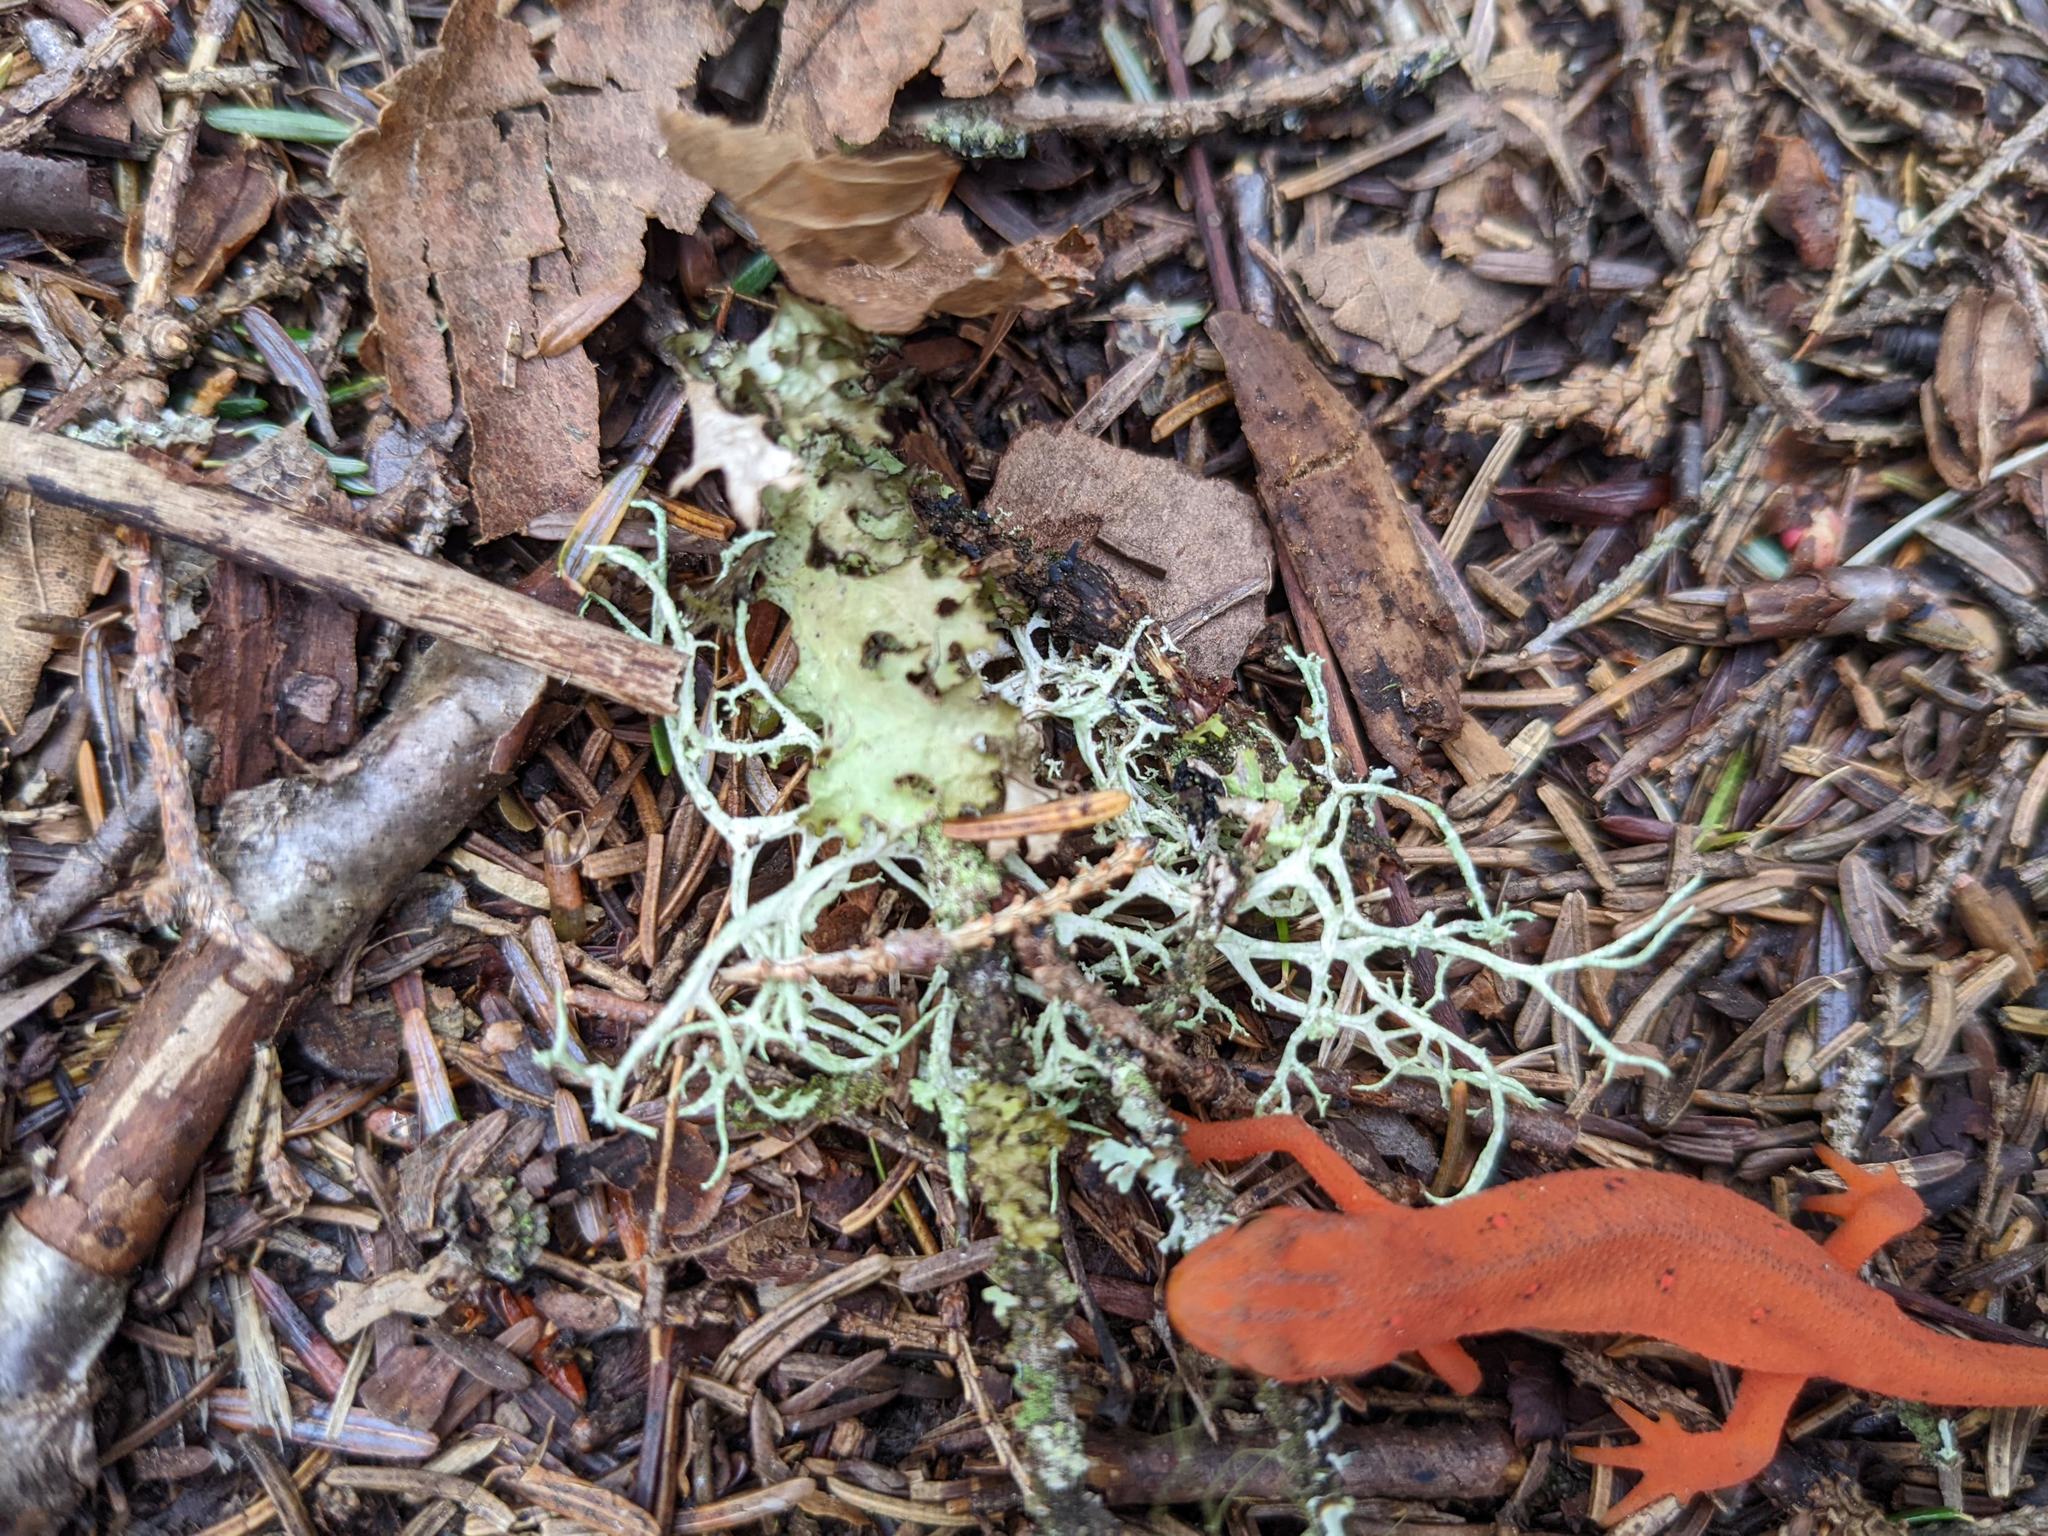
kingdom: Fungi
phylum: Ascomycota
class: Lecanoromycetes
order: Lecanorales
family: Parmeliaceae
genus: Evernia
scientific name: Evernia mesomorpha
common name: Boreal oak moss lichen
